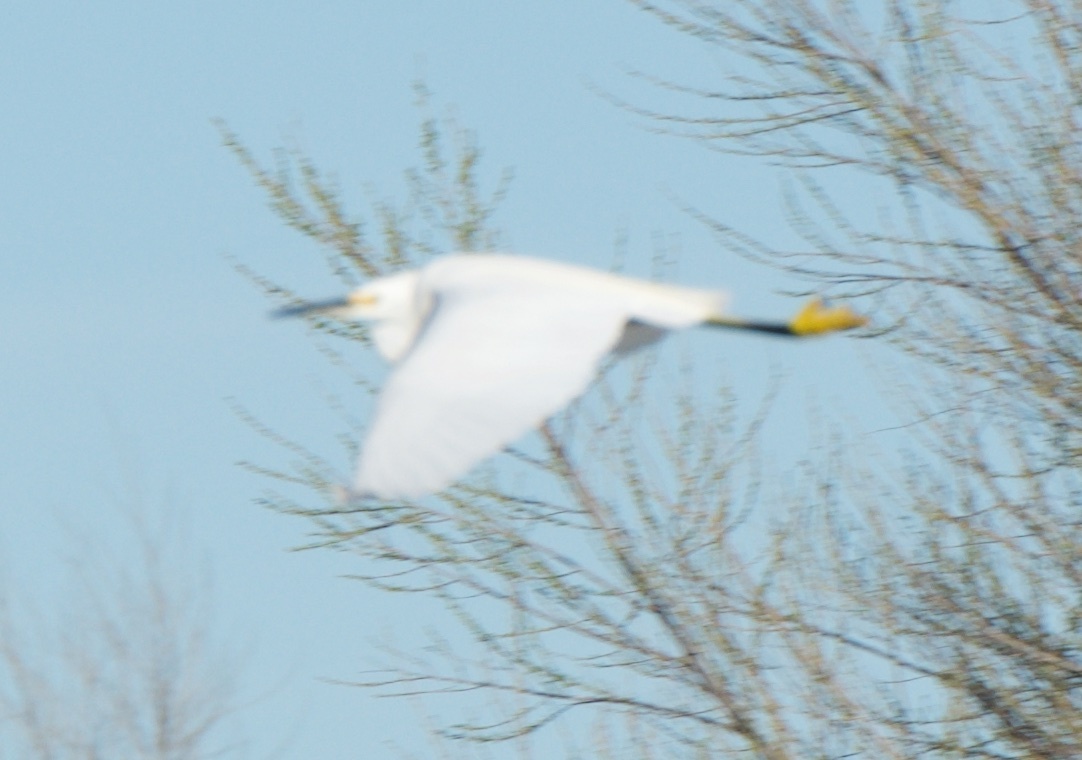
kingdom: Animalia
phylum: Chordata
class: Aves
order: Pelecaniformes
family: Ardeidae
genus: Egretta
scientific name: Egretta thula
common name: Snowy egret
